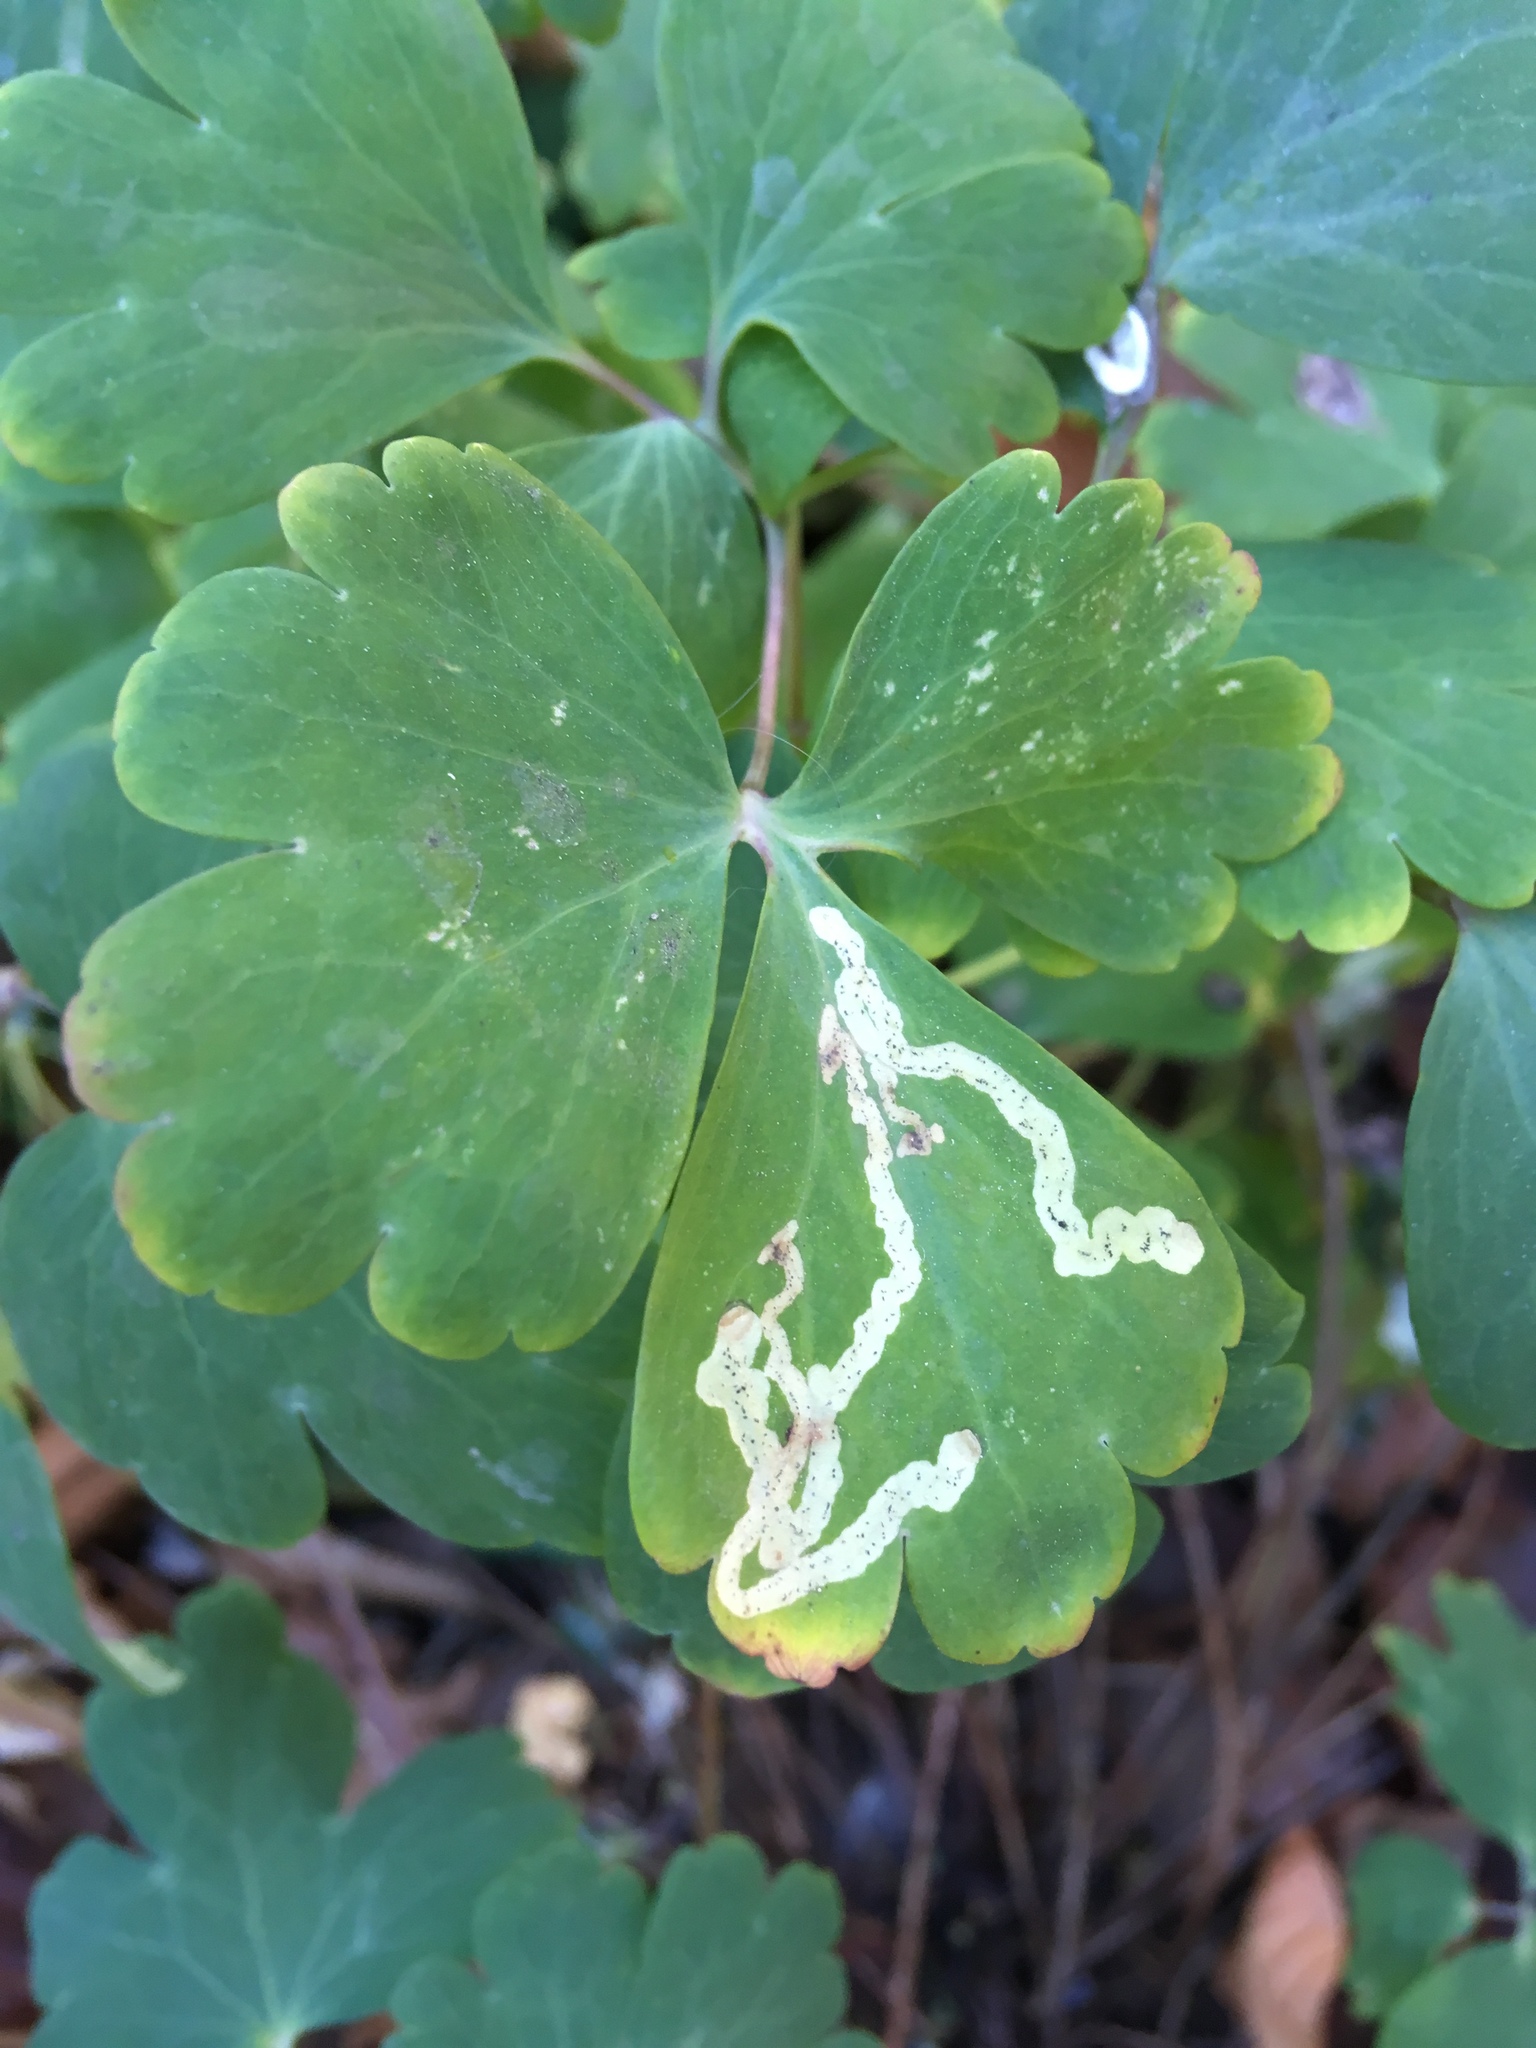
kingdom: Animalia
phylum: Arthropoda
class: Insecta
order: Diptera
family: Agromyzidae
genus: Phytomyza
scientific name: Phytomyza
